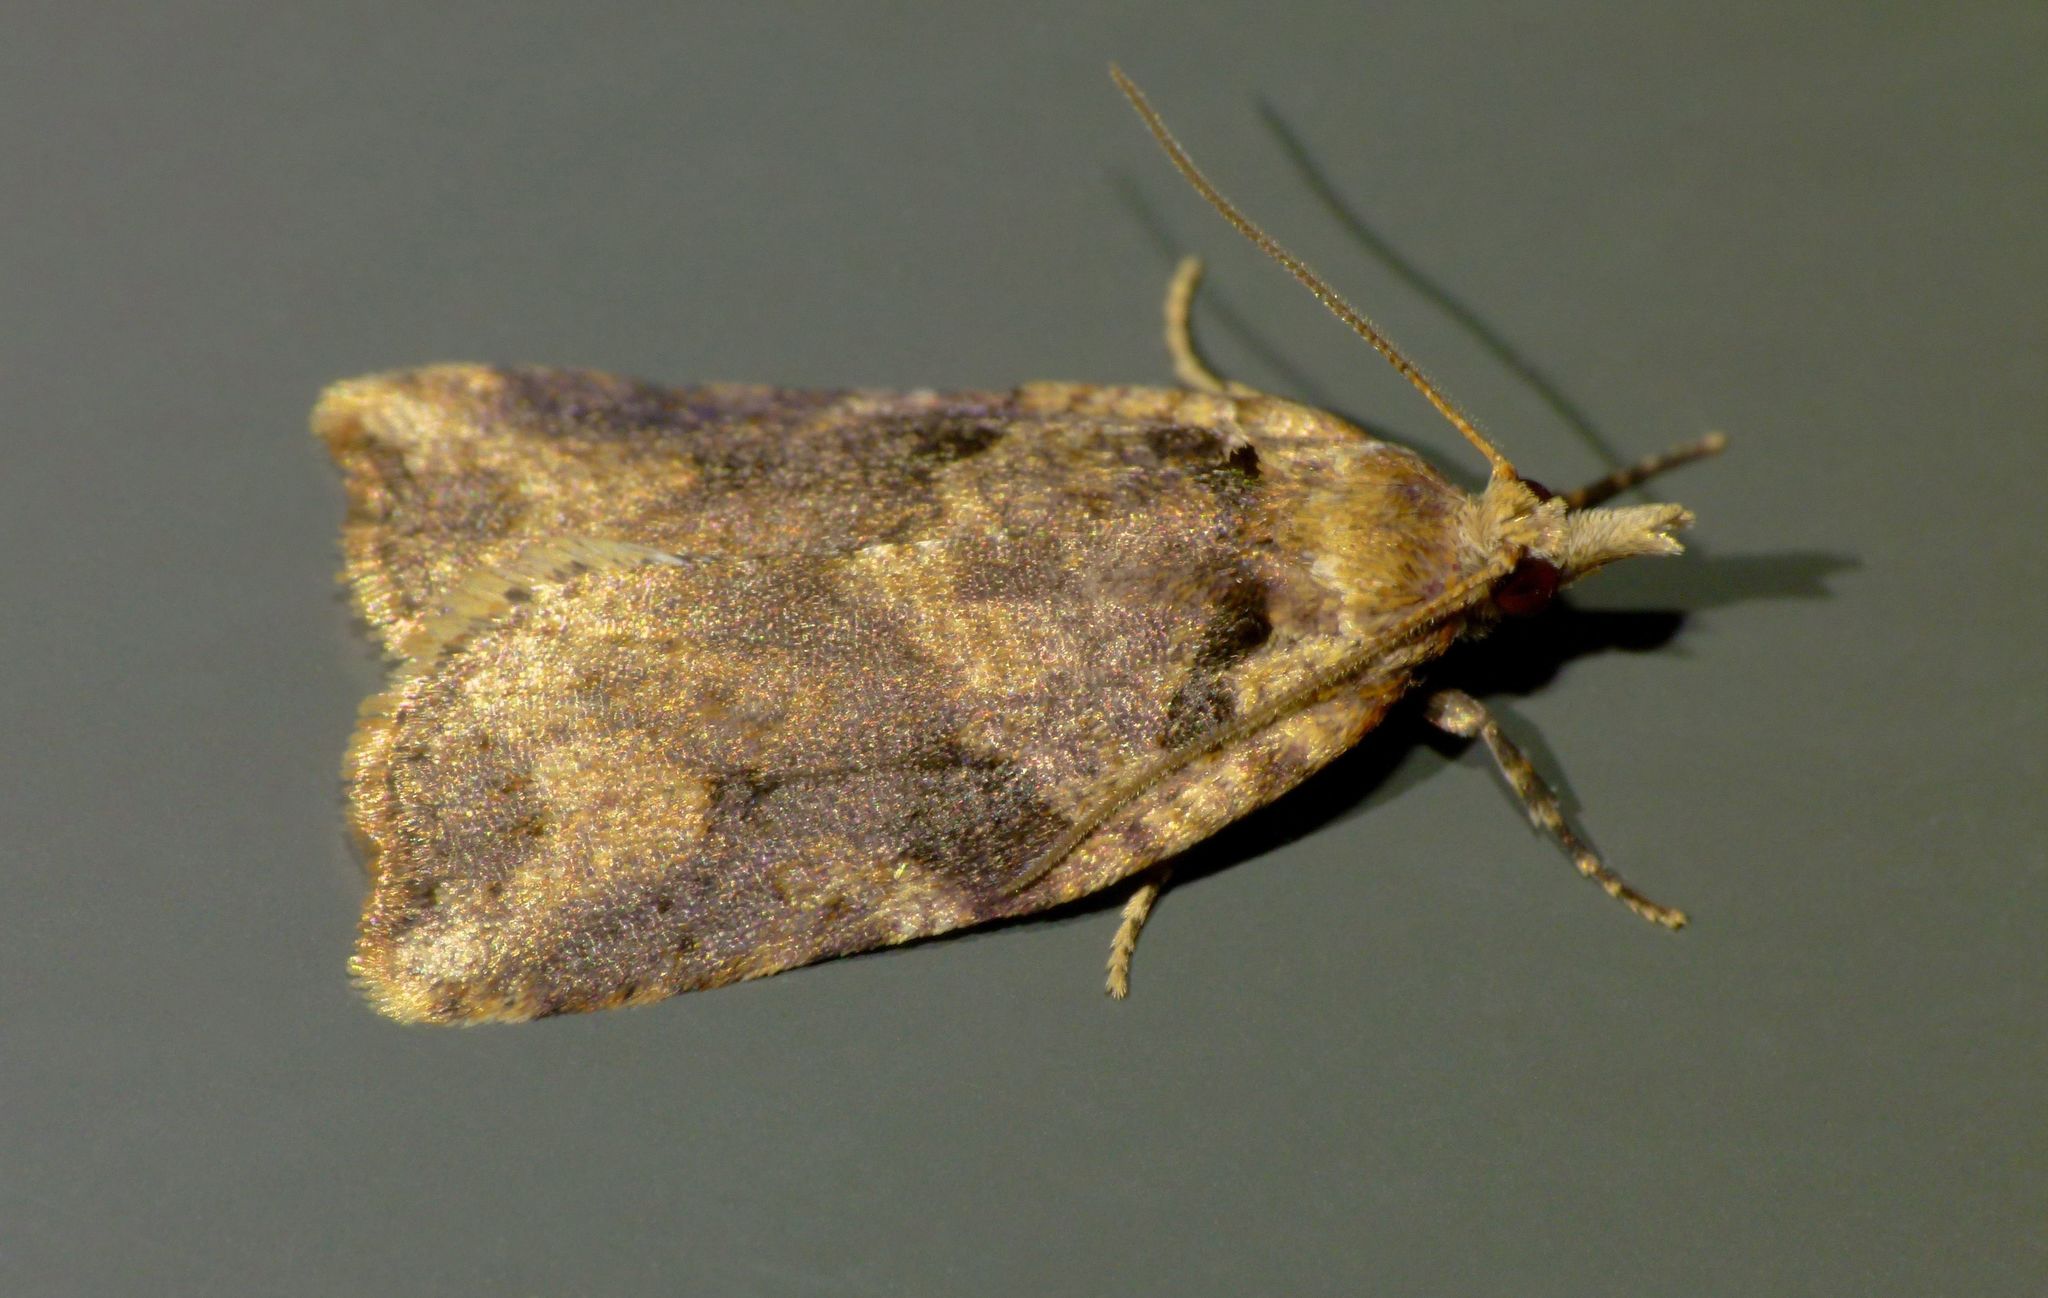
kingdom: Animalia
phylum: Arthropoda
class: Insecta
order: Lepidoptera
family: Tortricidae
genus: Ctenopseustis
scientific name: Ctenopseustis obliquana
